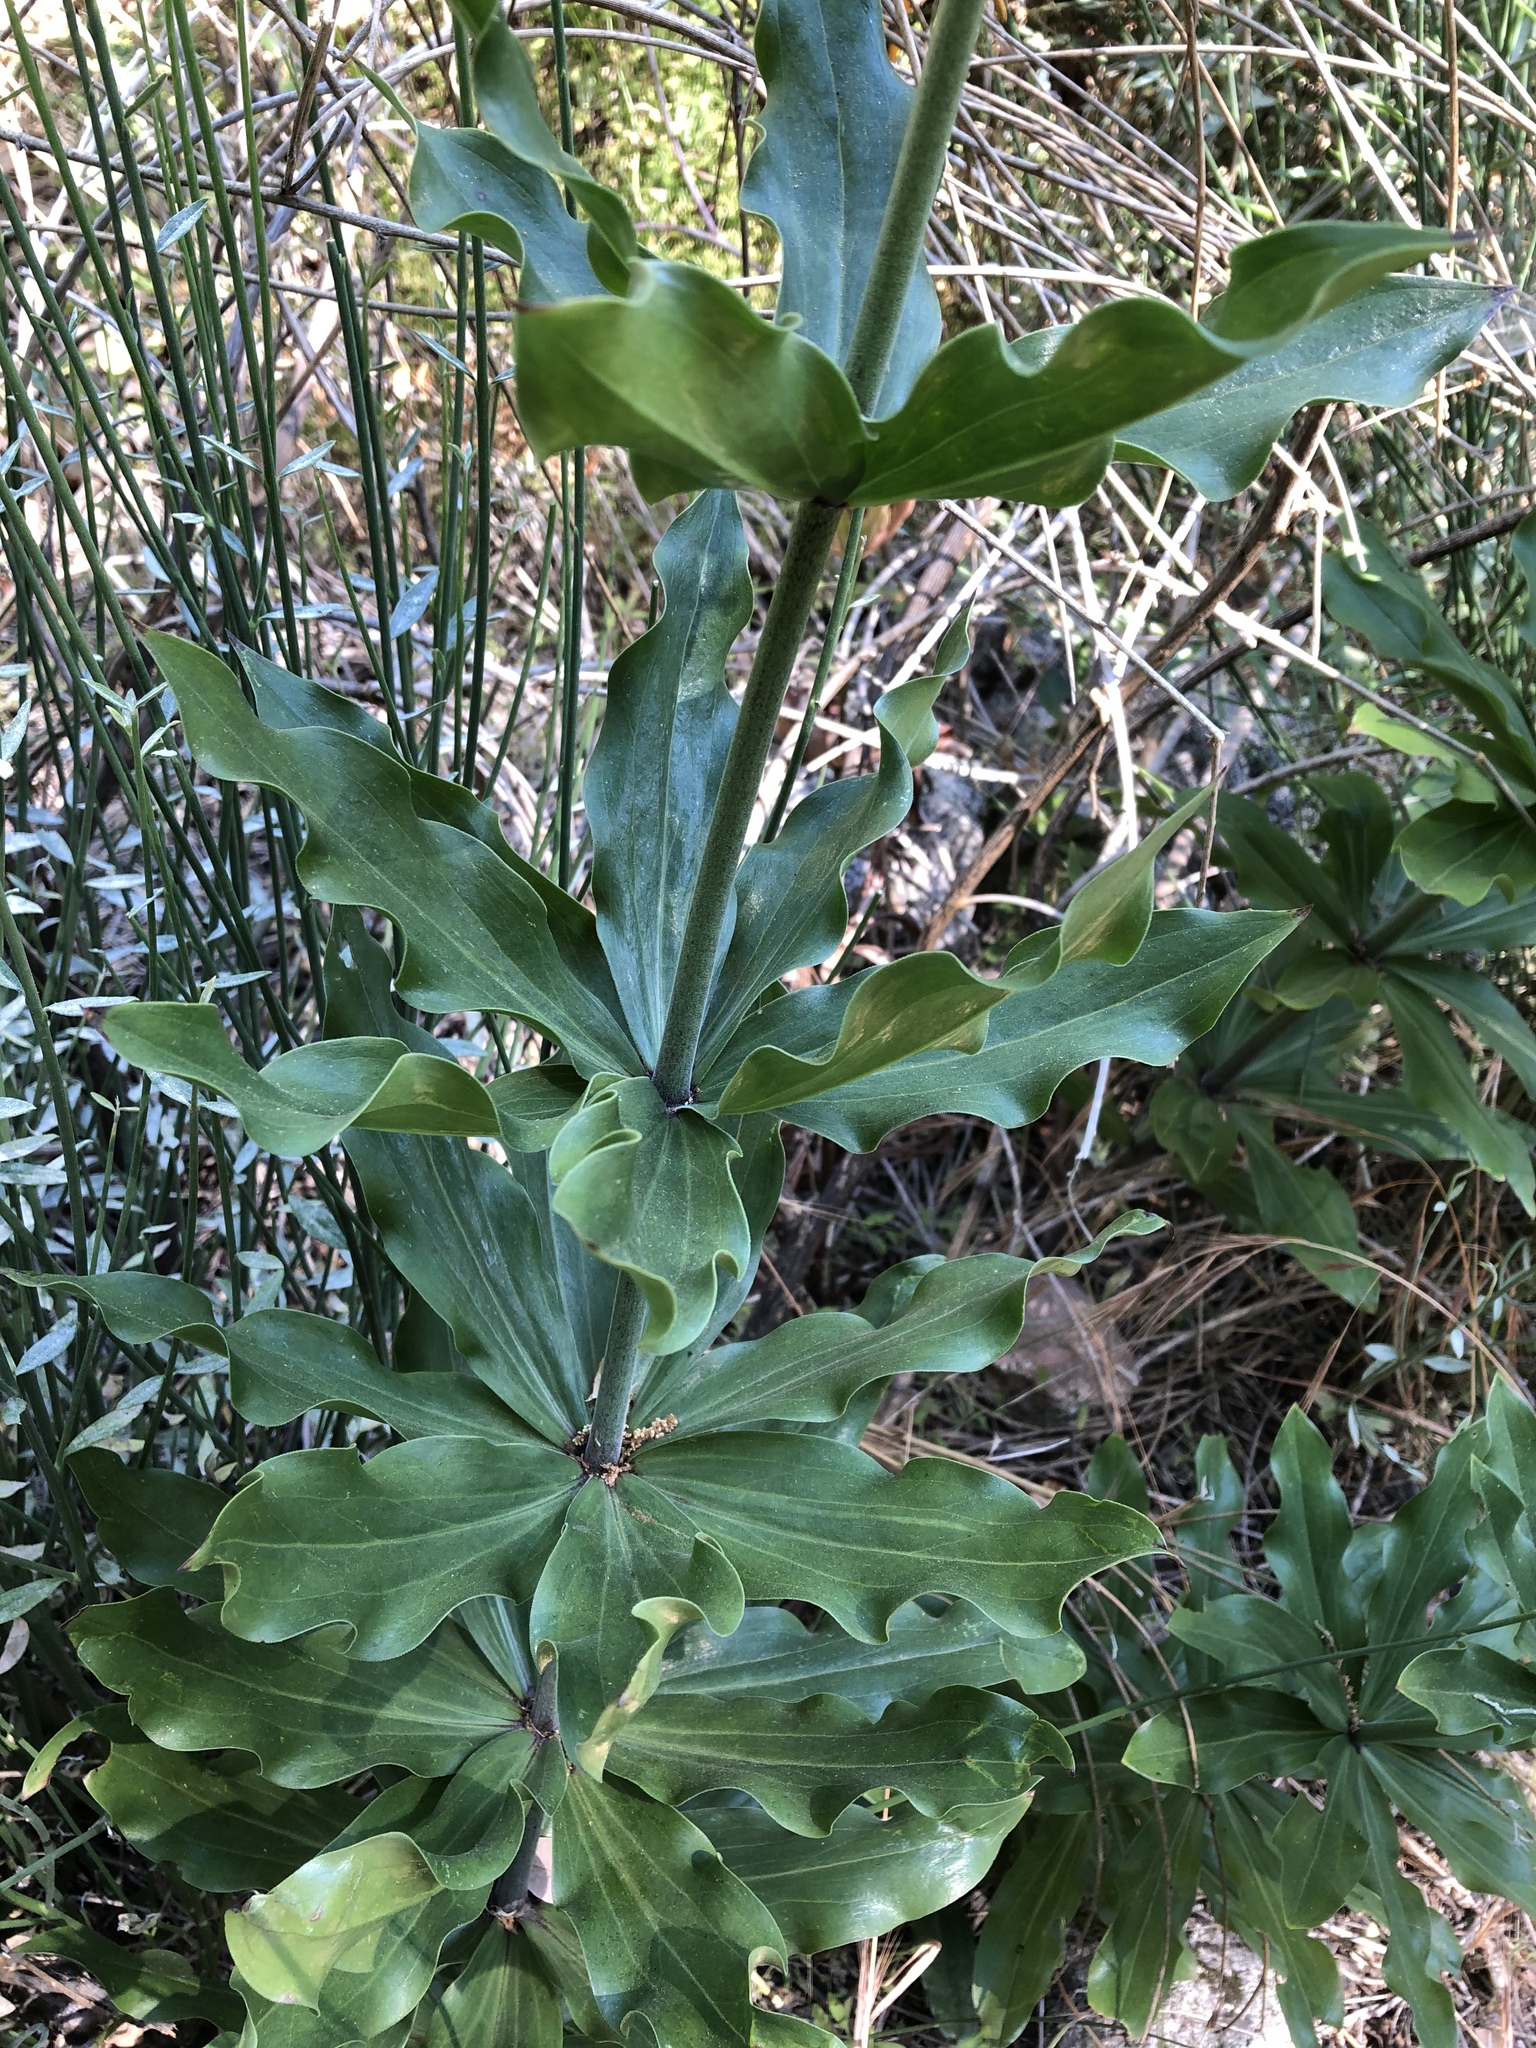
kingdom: Plantae
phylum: Tracheophyta
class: Liliopsida
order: Liliales
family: Liliaceae
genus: Lilium
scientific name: Lilium humboldtii
